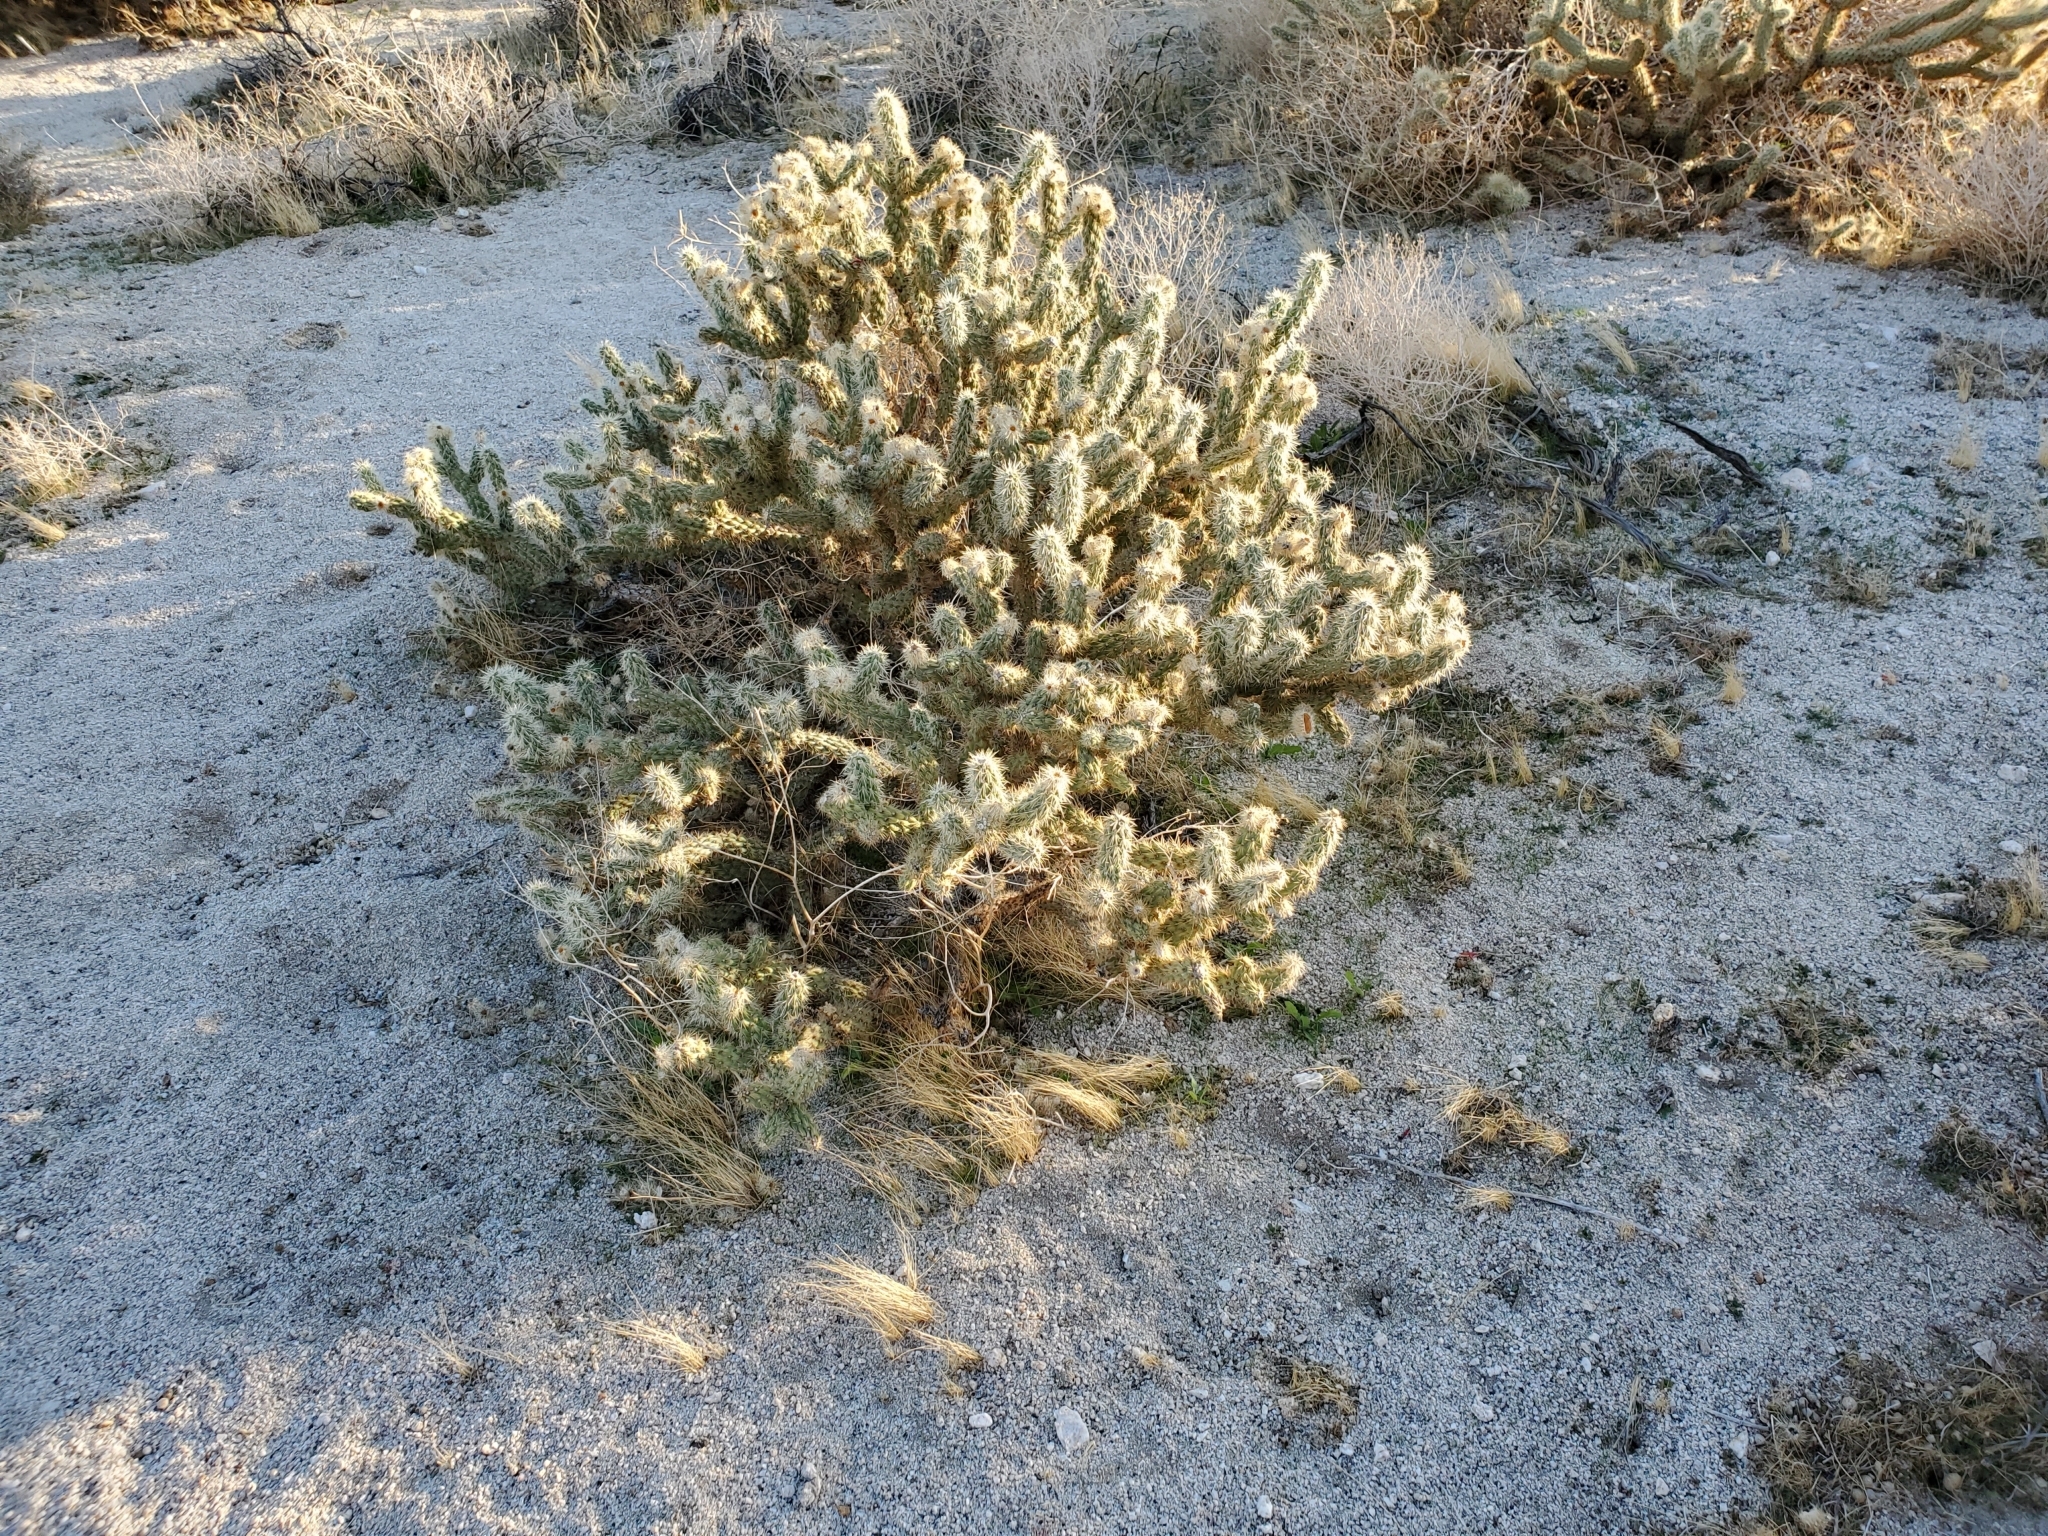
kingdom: Plantae
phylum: Tracheophyta
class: Magnoliopsida
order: Caryophyllales
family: Cactaceae
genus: Cylindropuntia
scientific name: Cylindropuntia wolfii
